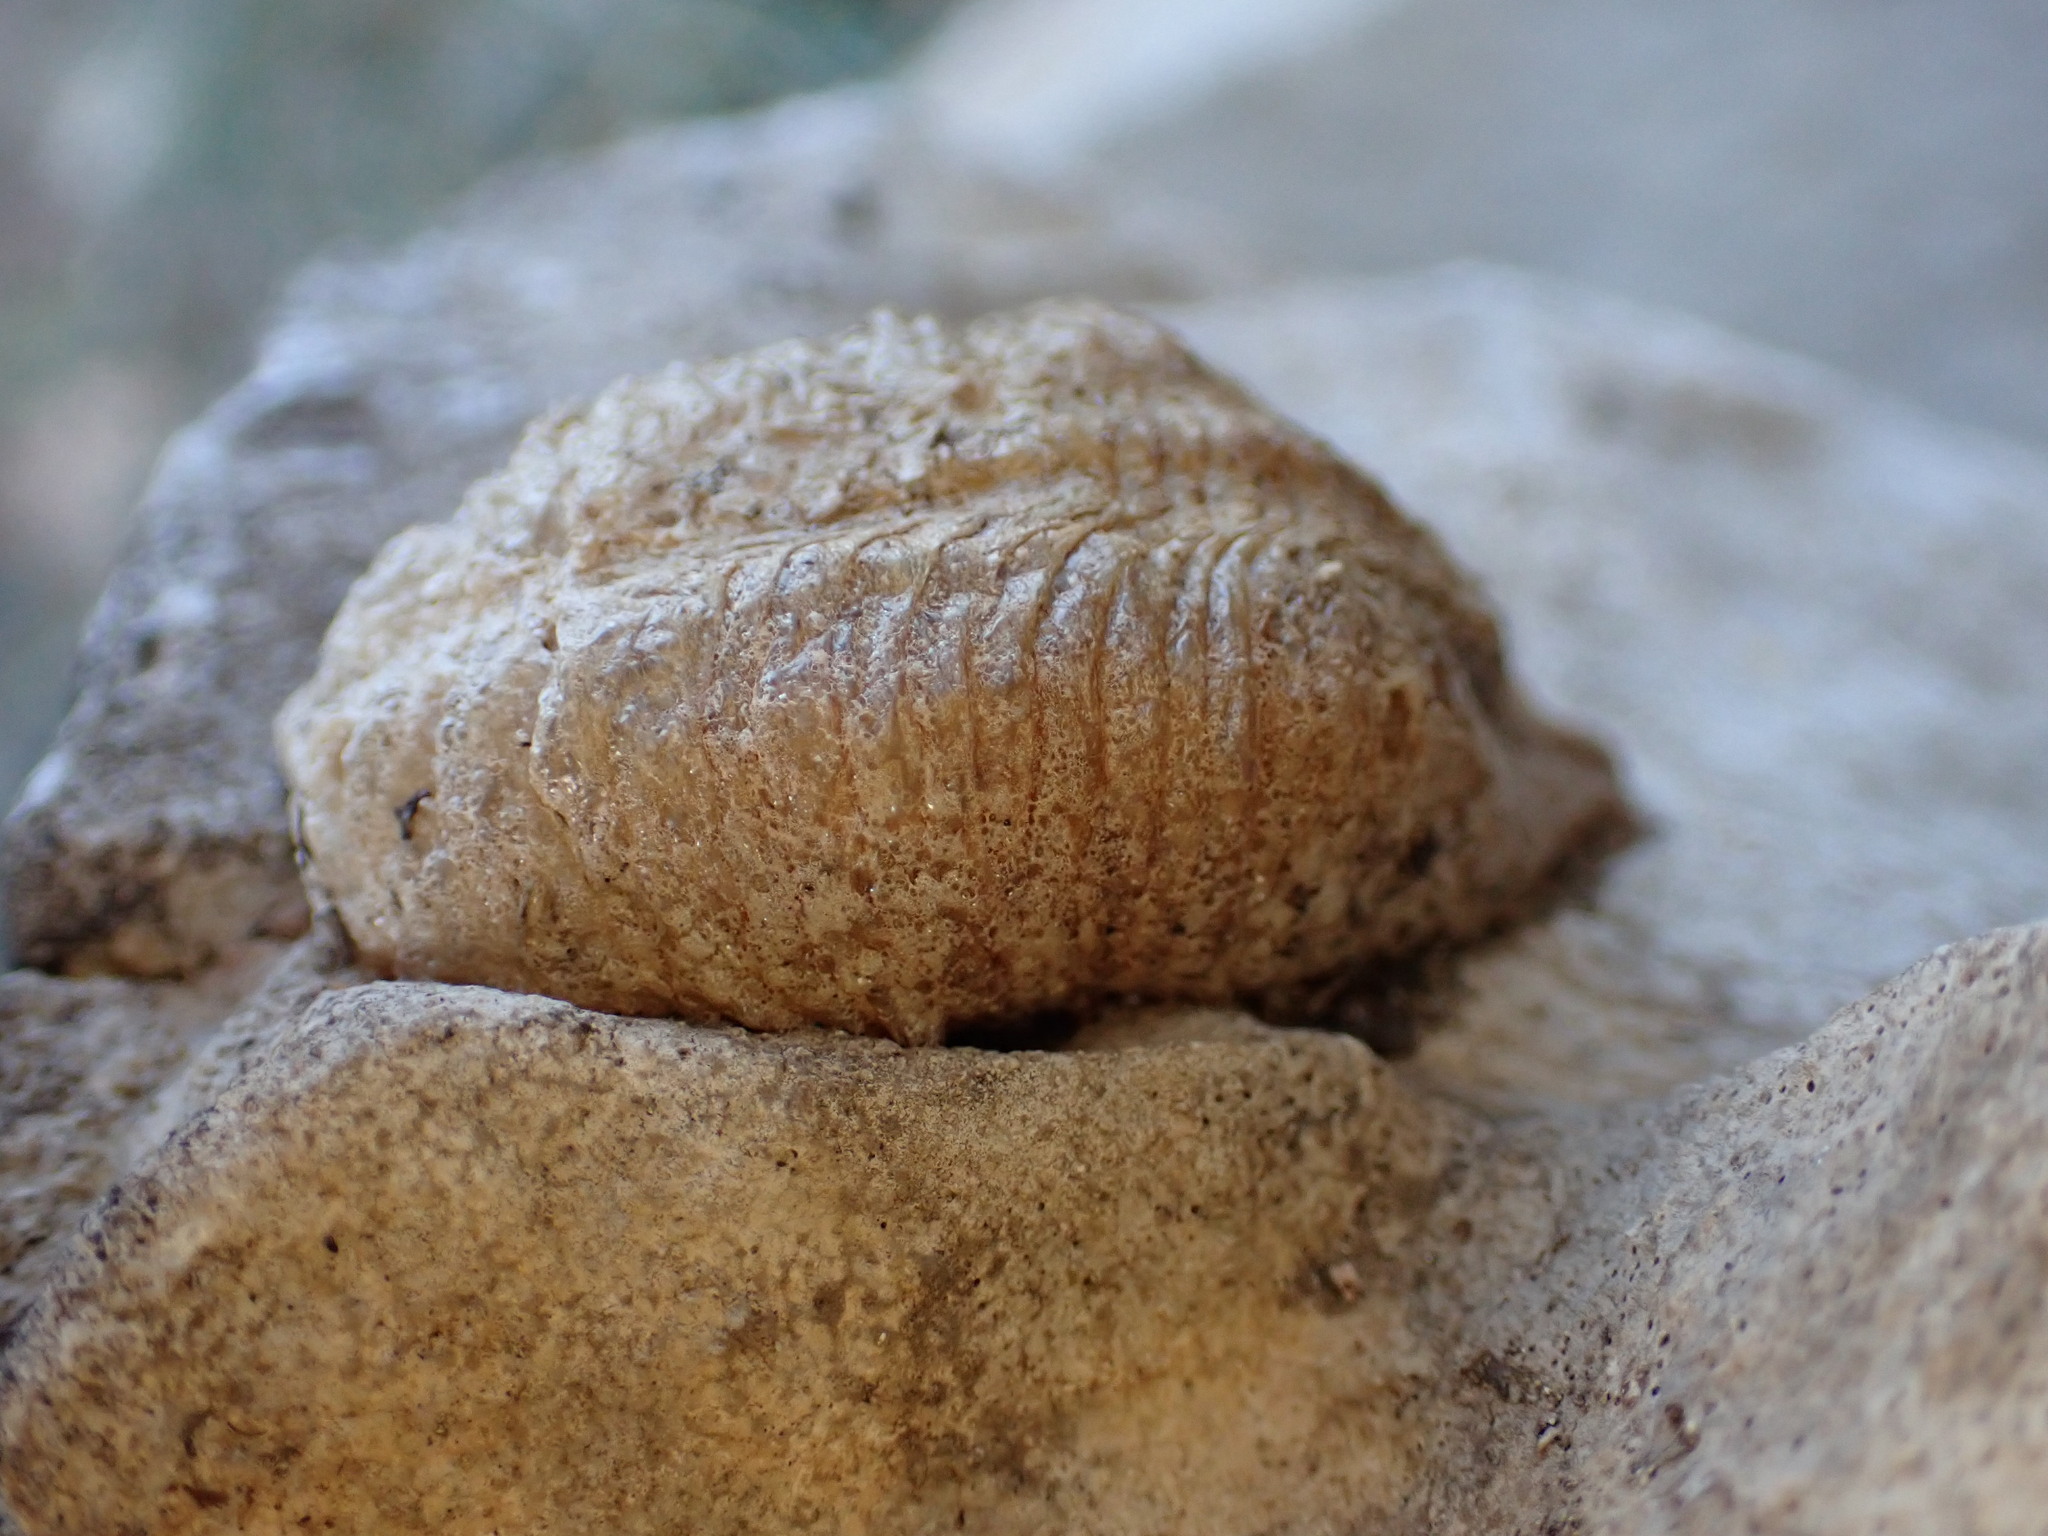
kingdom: Animalia
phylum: Arthropoda
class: Insecta
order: Mantodea
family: Mantidae
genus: Mantis
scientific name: Mantis religiosa
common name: Praying mantis
